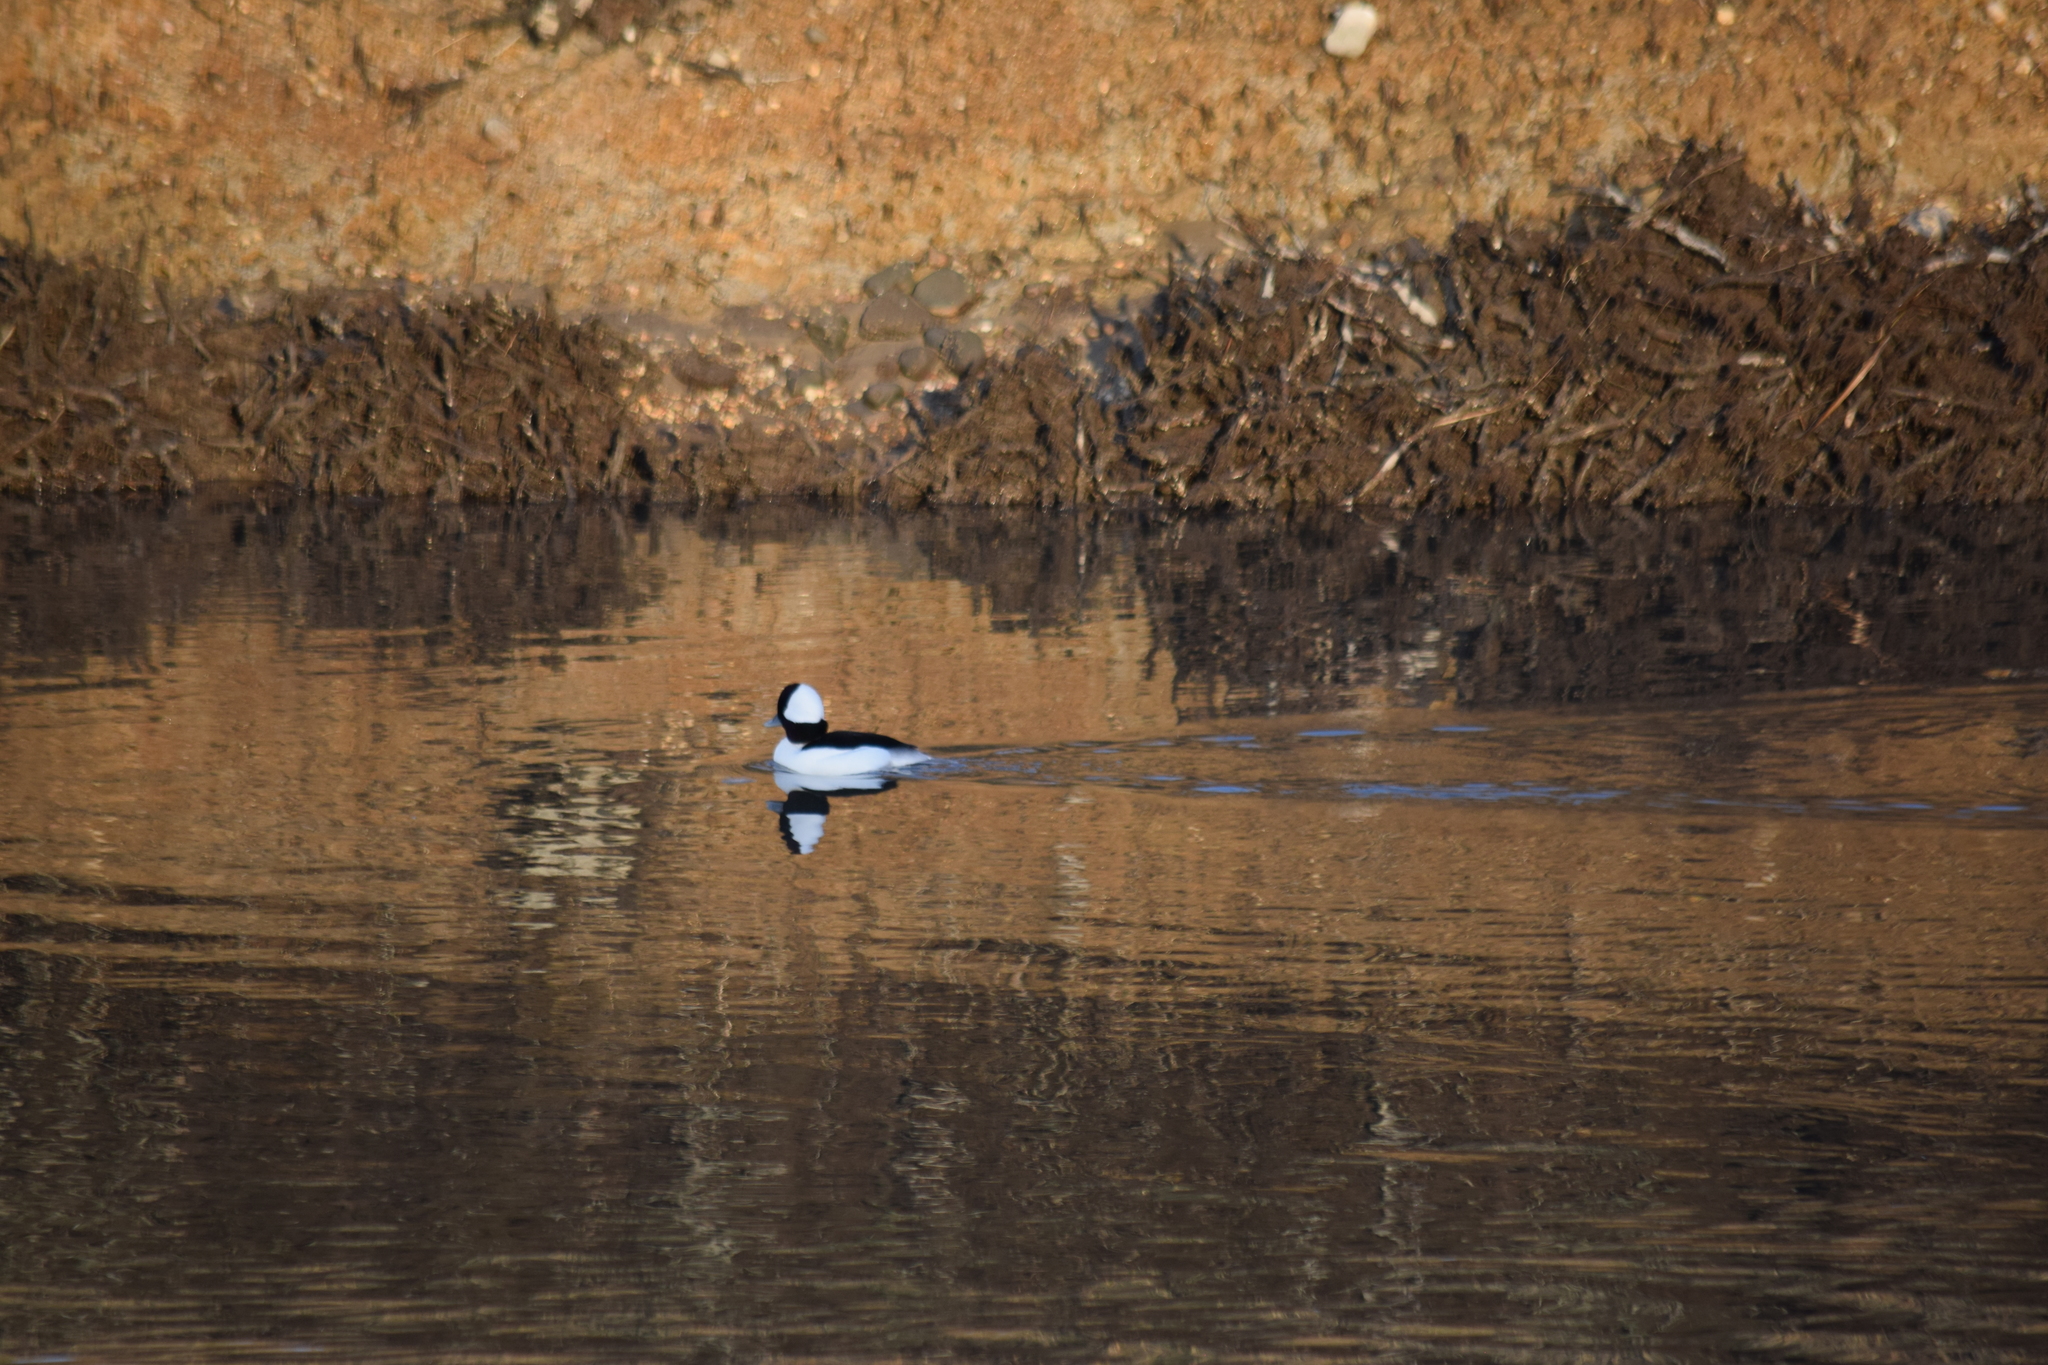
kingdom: Animalia
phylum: Chordata
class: Aves
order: Anseriformes
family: Anatidae
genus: Bucephala
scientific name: Bucephala albeola
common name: Bufflehead
